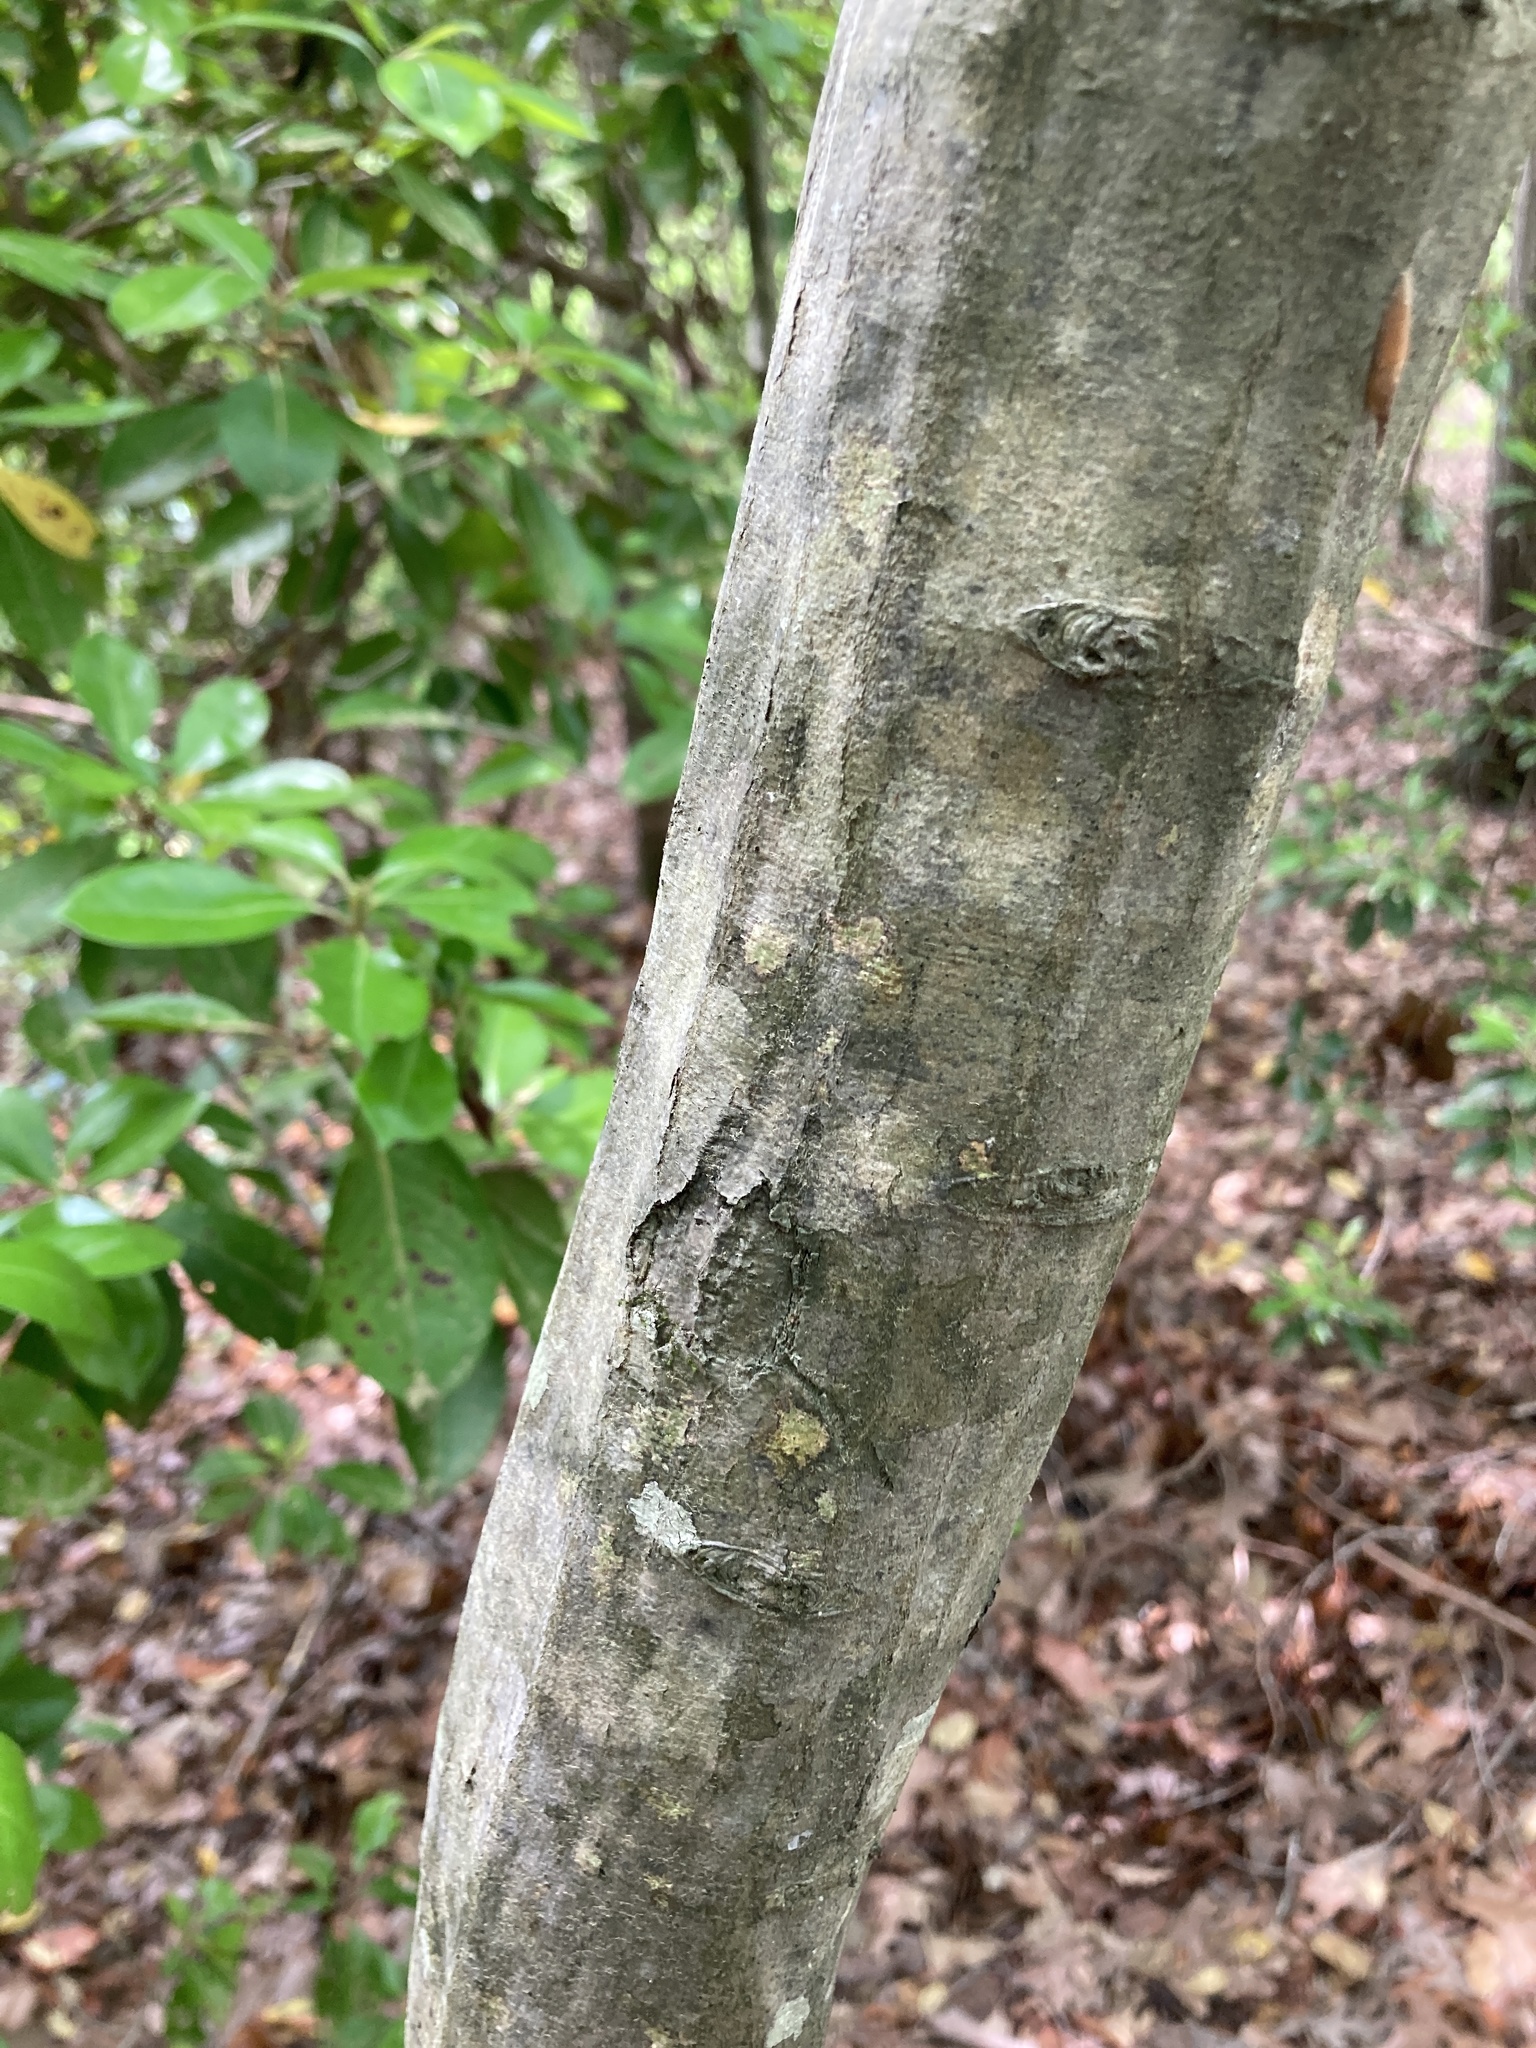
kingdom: Plantae
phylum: Tracheophyta
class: Magnoliopsida
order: Fagales
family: Betulaceae
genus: Carpinus
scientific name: Carpinus caroliniana
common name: American hornbeam
